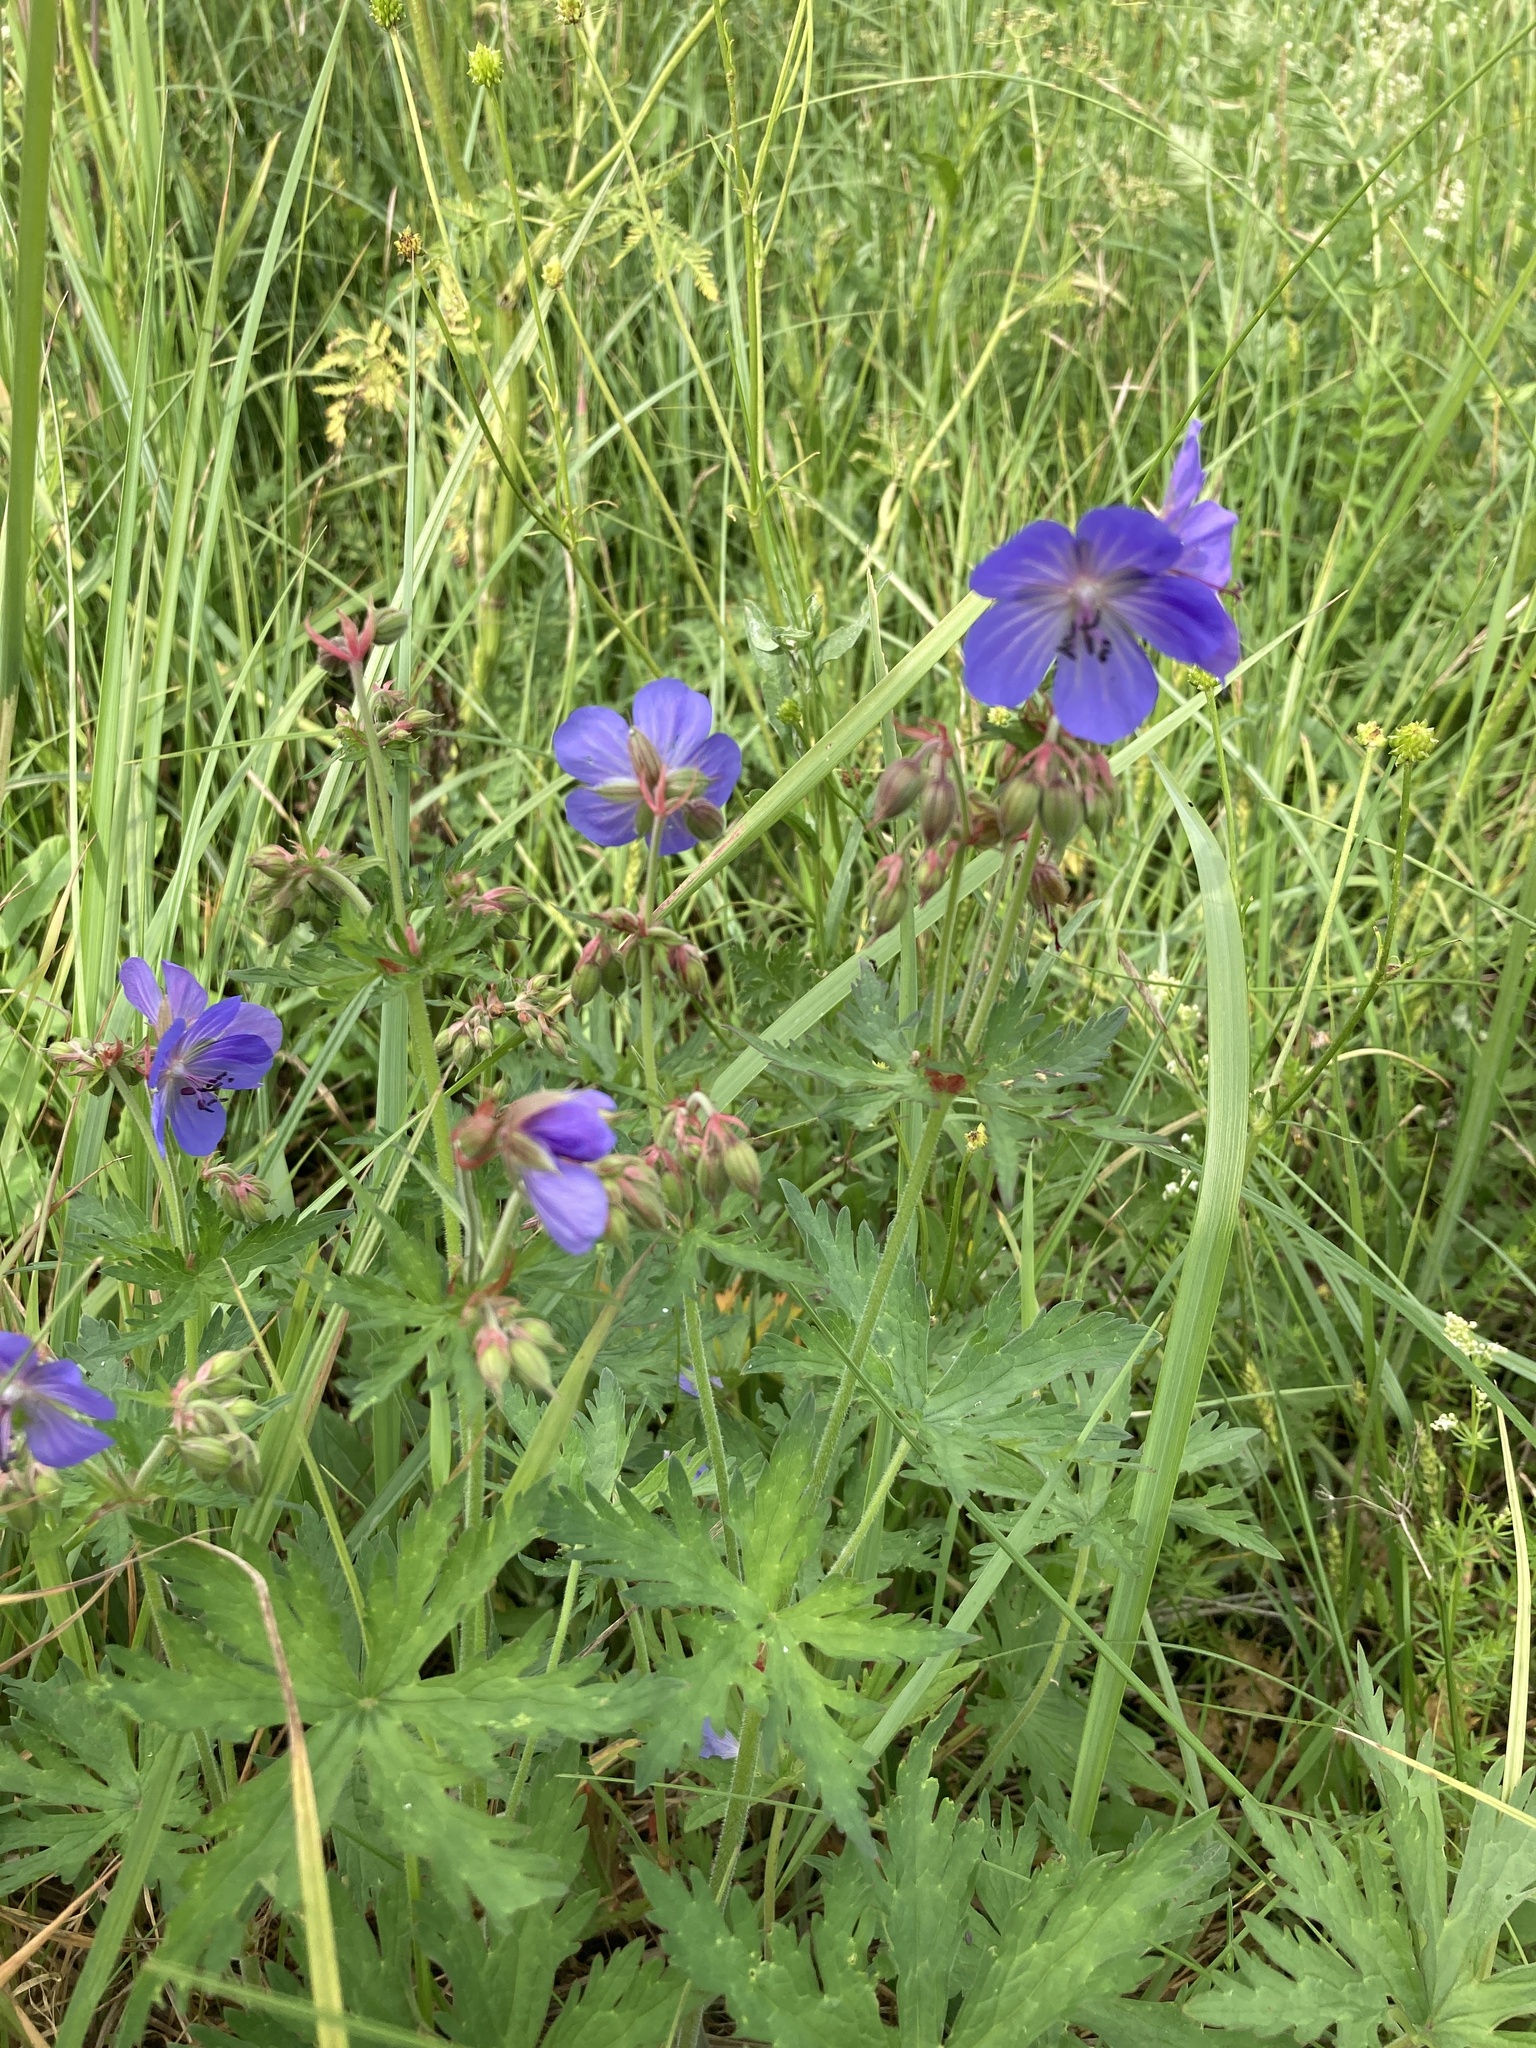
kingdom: Plantae
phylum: Tracheophyta
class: Magnoliopsida
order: Geraniales
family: Geraniaceae
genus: Geranium
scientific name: Geranium pratense
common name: Meadow crane's-bill
